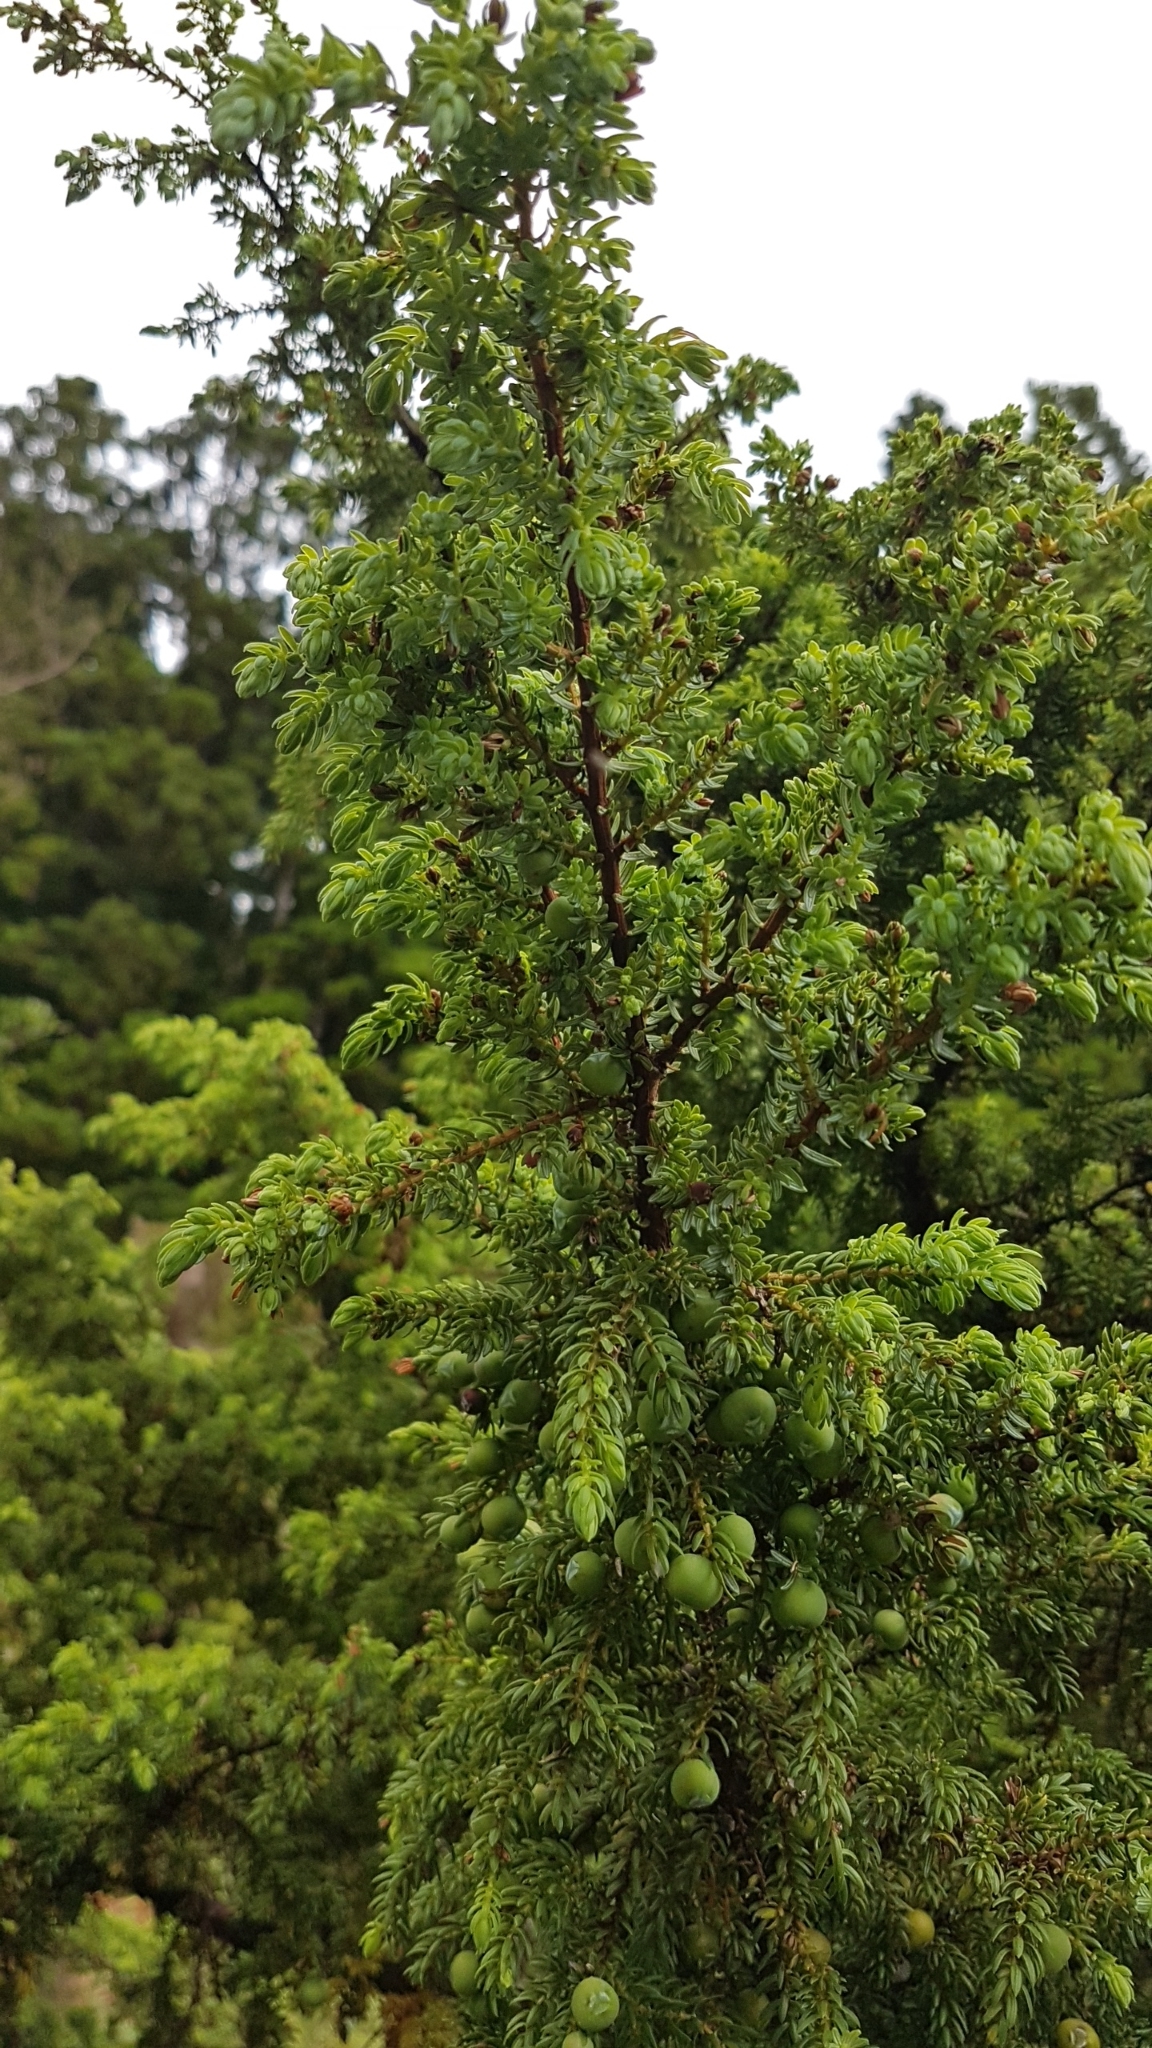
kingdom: Plantae
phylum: Tracheophyta
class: Pinopsida
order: Pinales
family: Cupressaceae
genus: Juniperus
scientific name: Juniperus brevifolia
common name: Azores juniper
